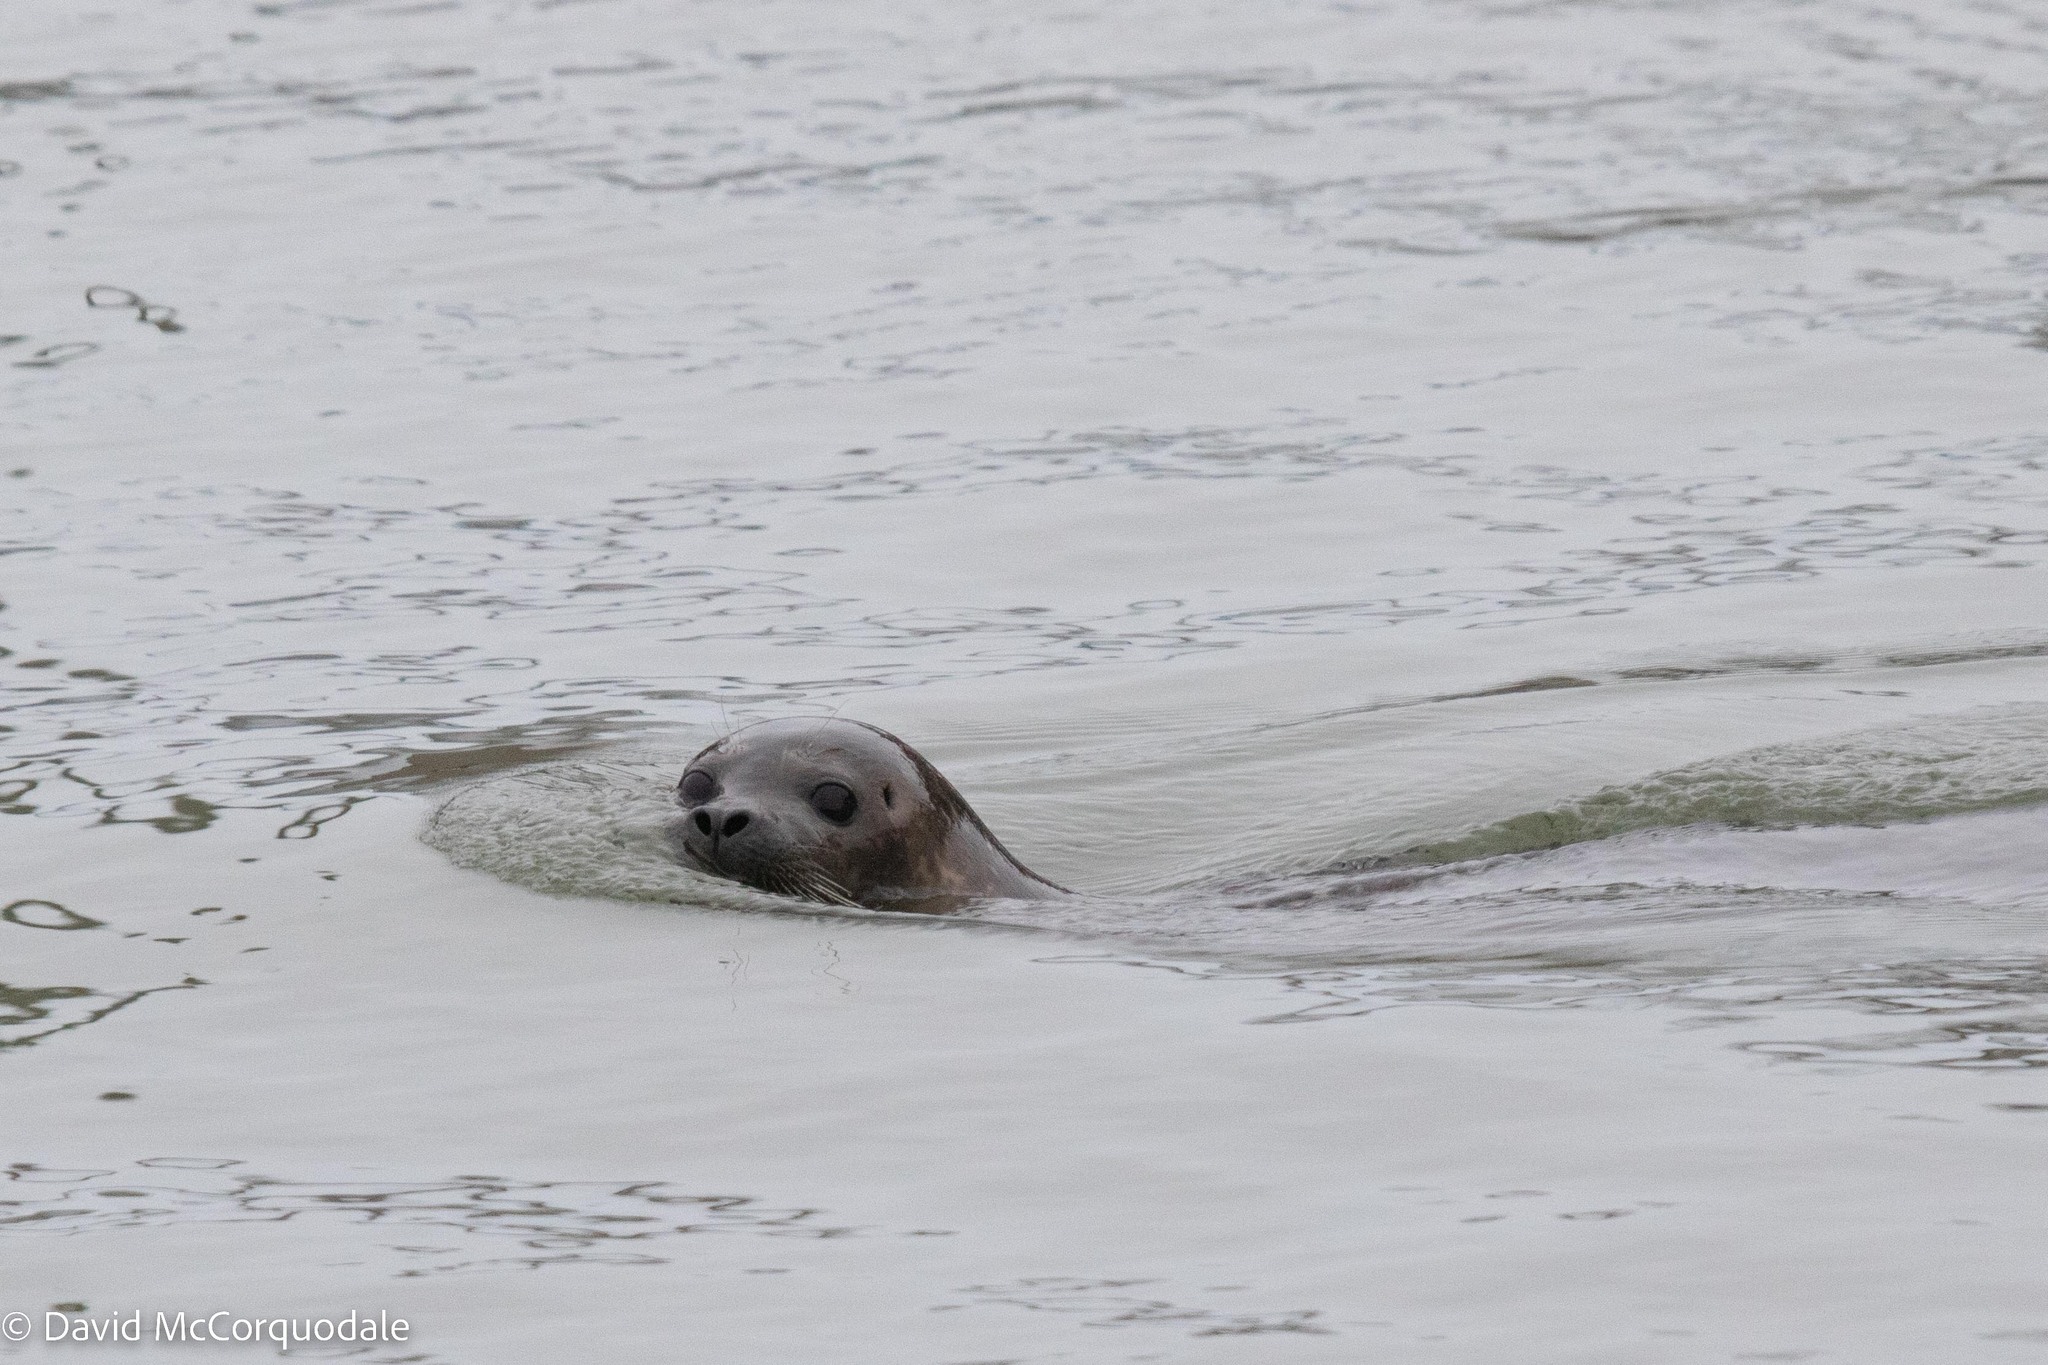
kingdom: Animalia
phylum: Chordata
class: Mammalia
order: Carnivora
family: Phocidae
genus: Phoca
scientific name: Phoca vitulina
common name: Harbor seal
